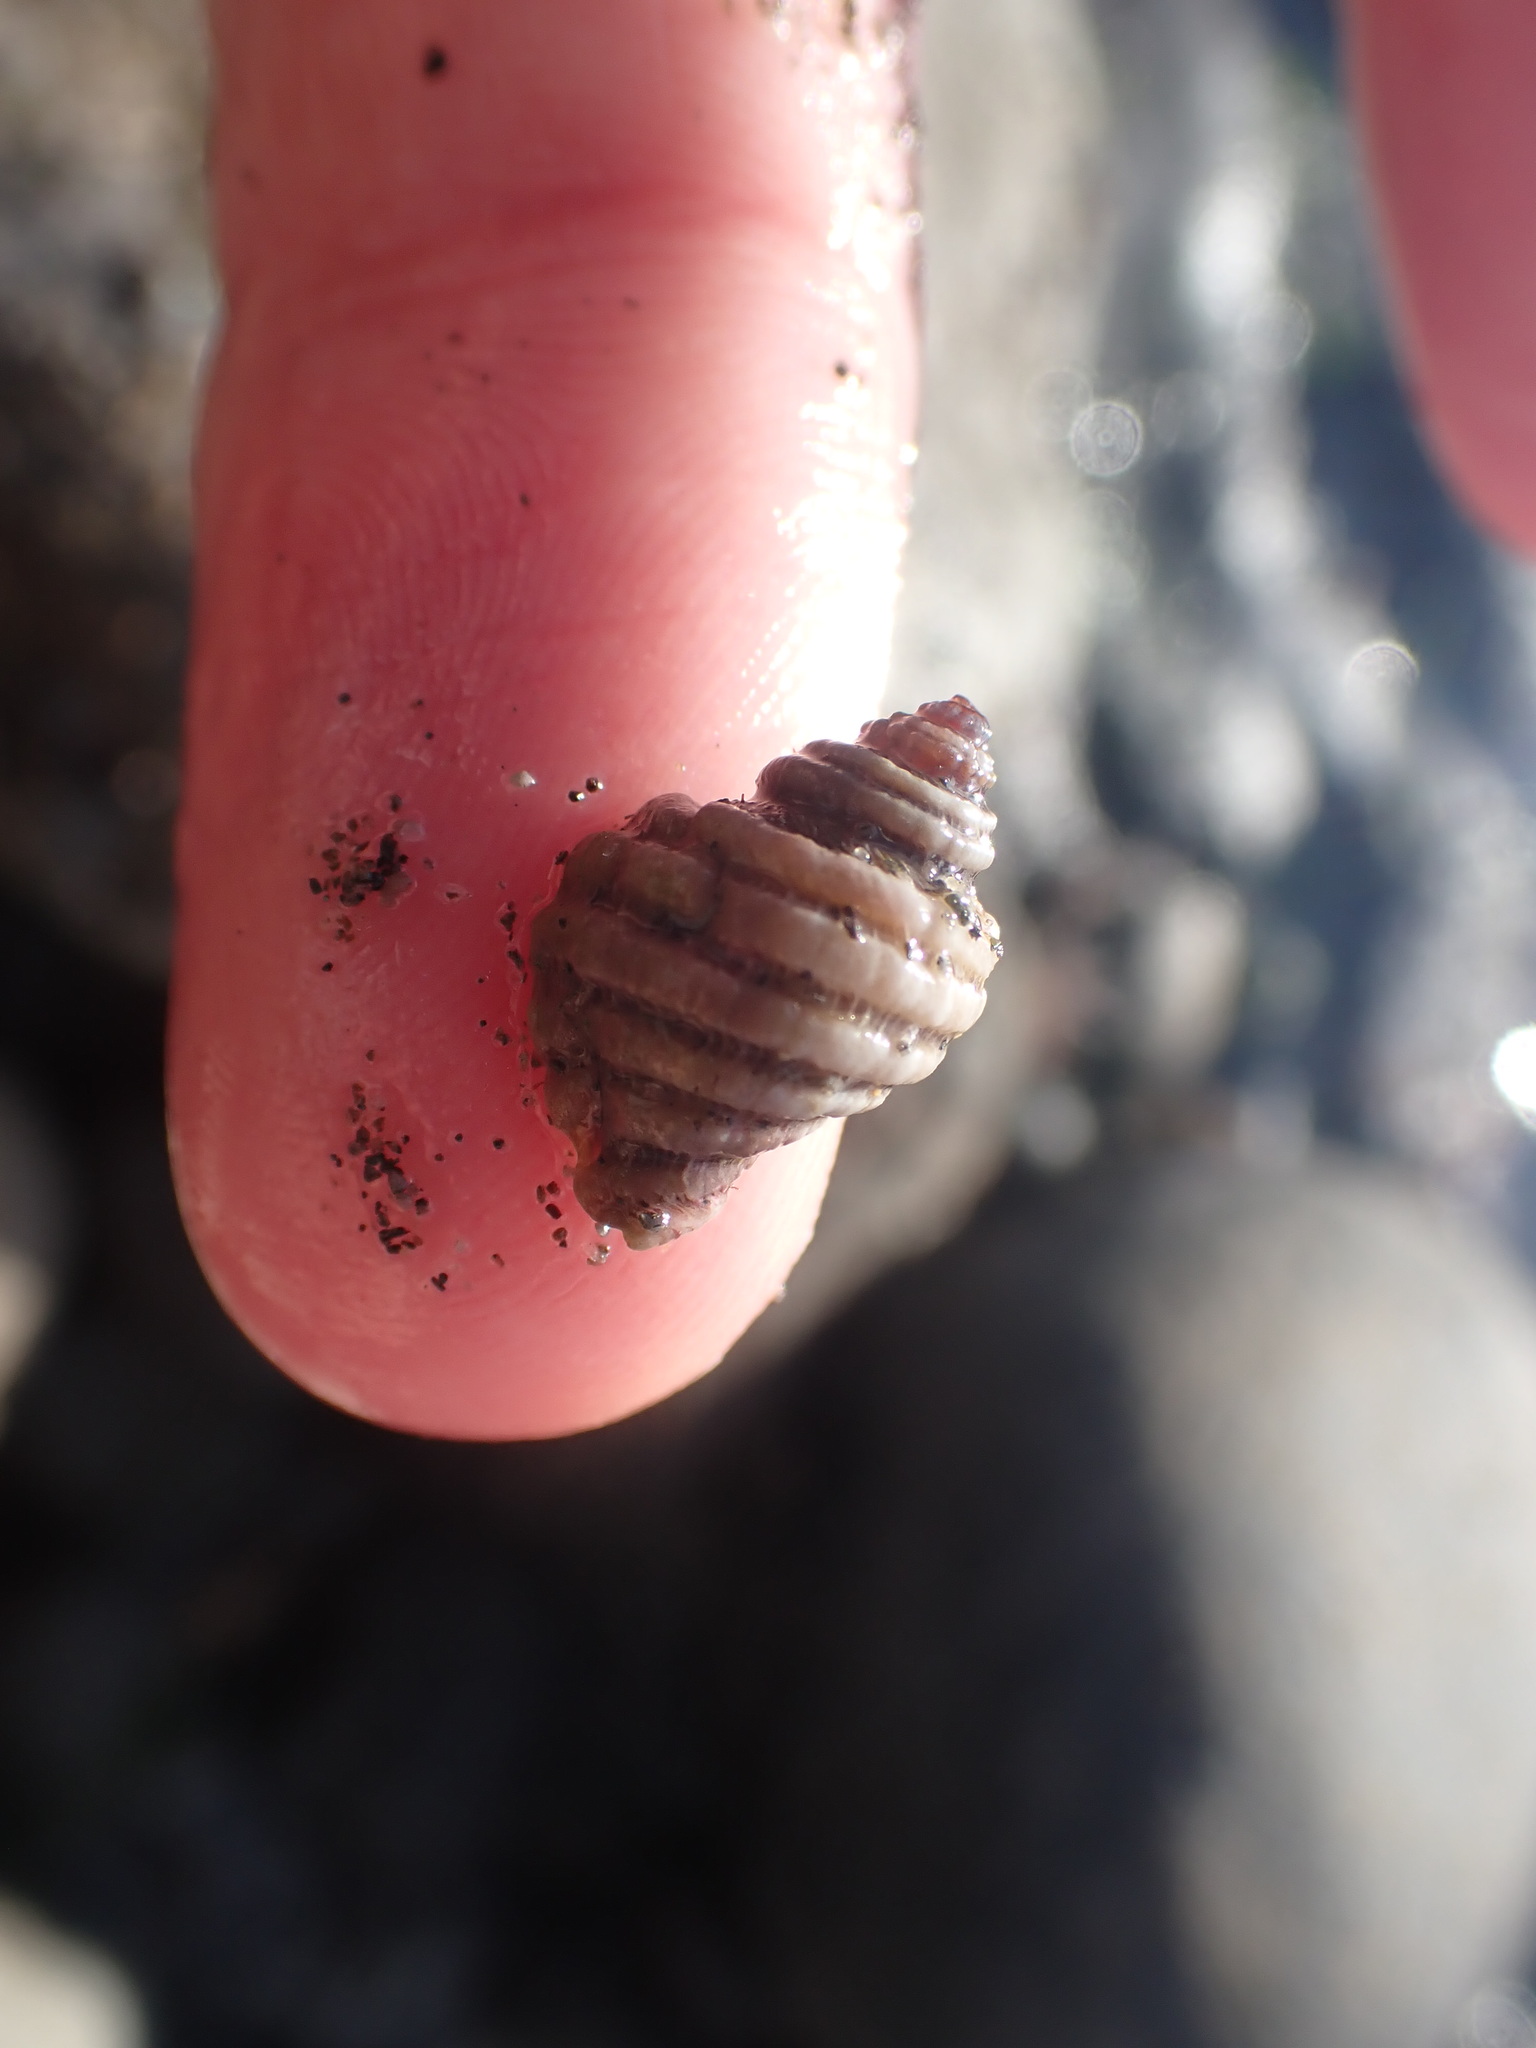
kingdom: Animalia
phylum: Mollusca
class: Gastropoda
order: Neogastropoda
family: Muricidae
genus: Paratrophon
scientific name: Paratrophon cheesemani
